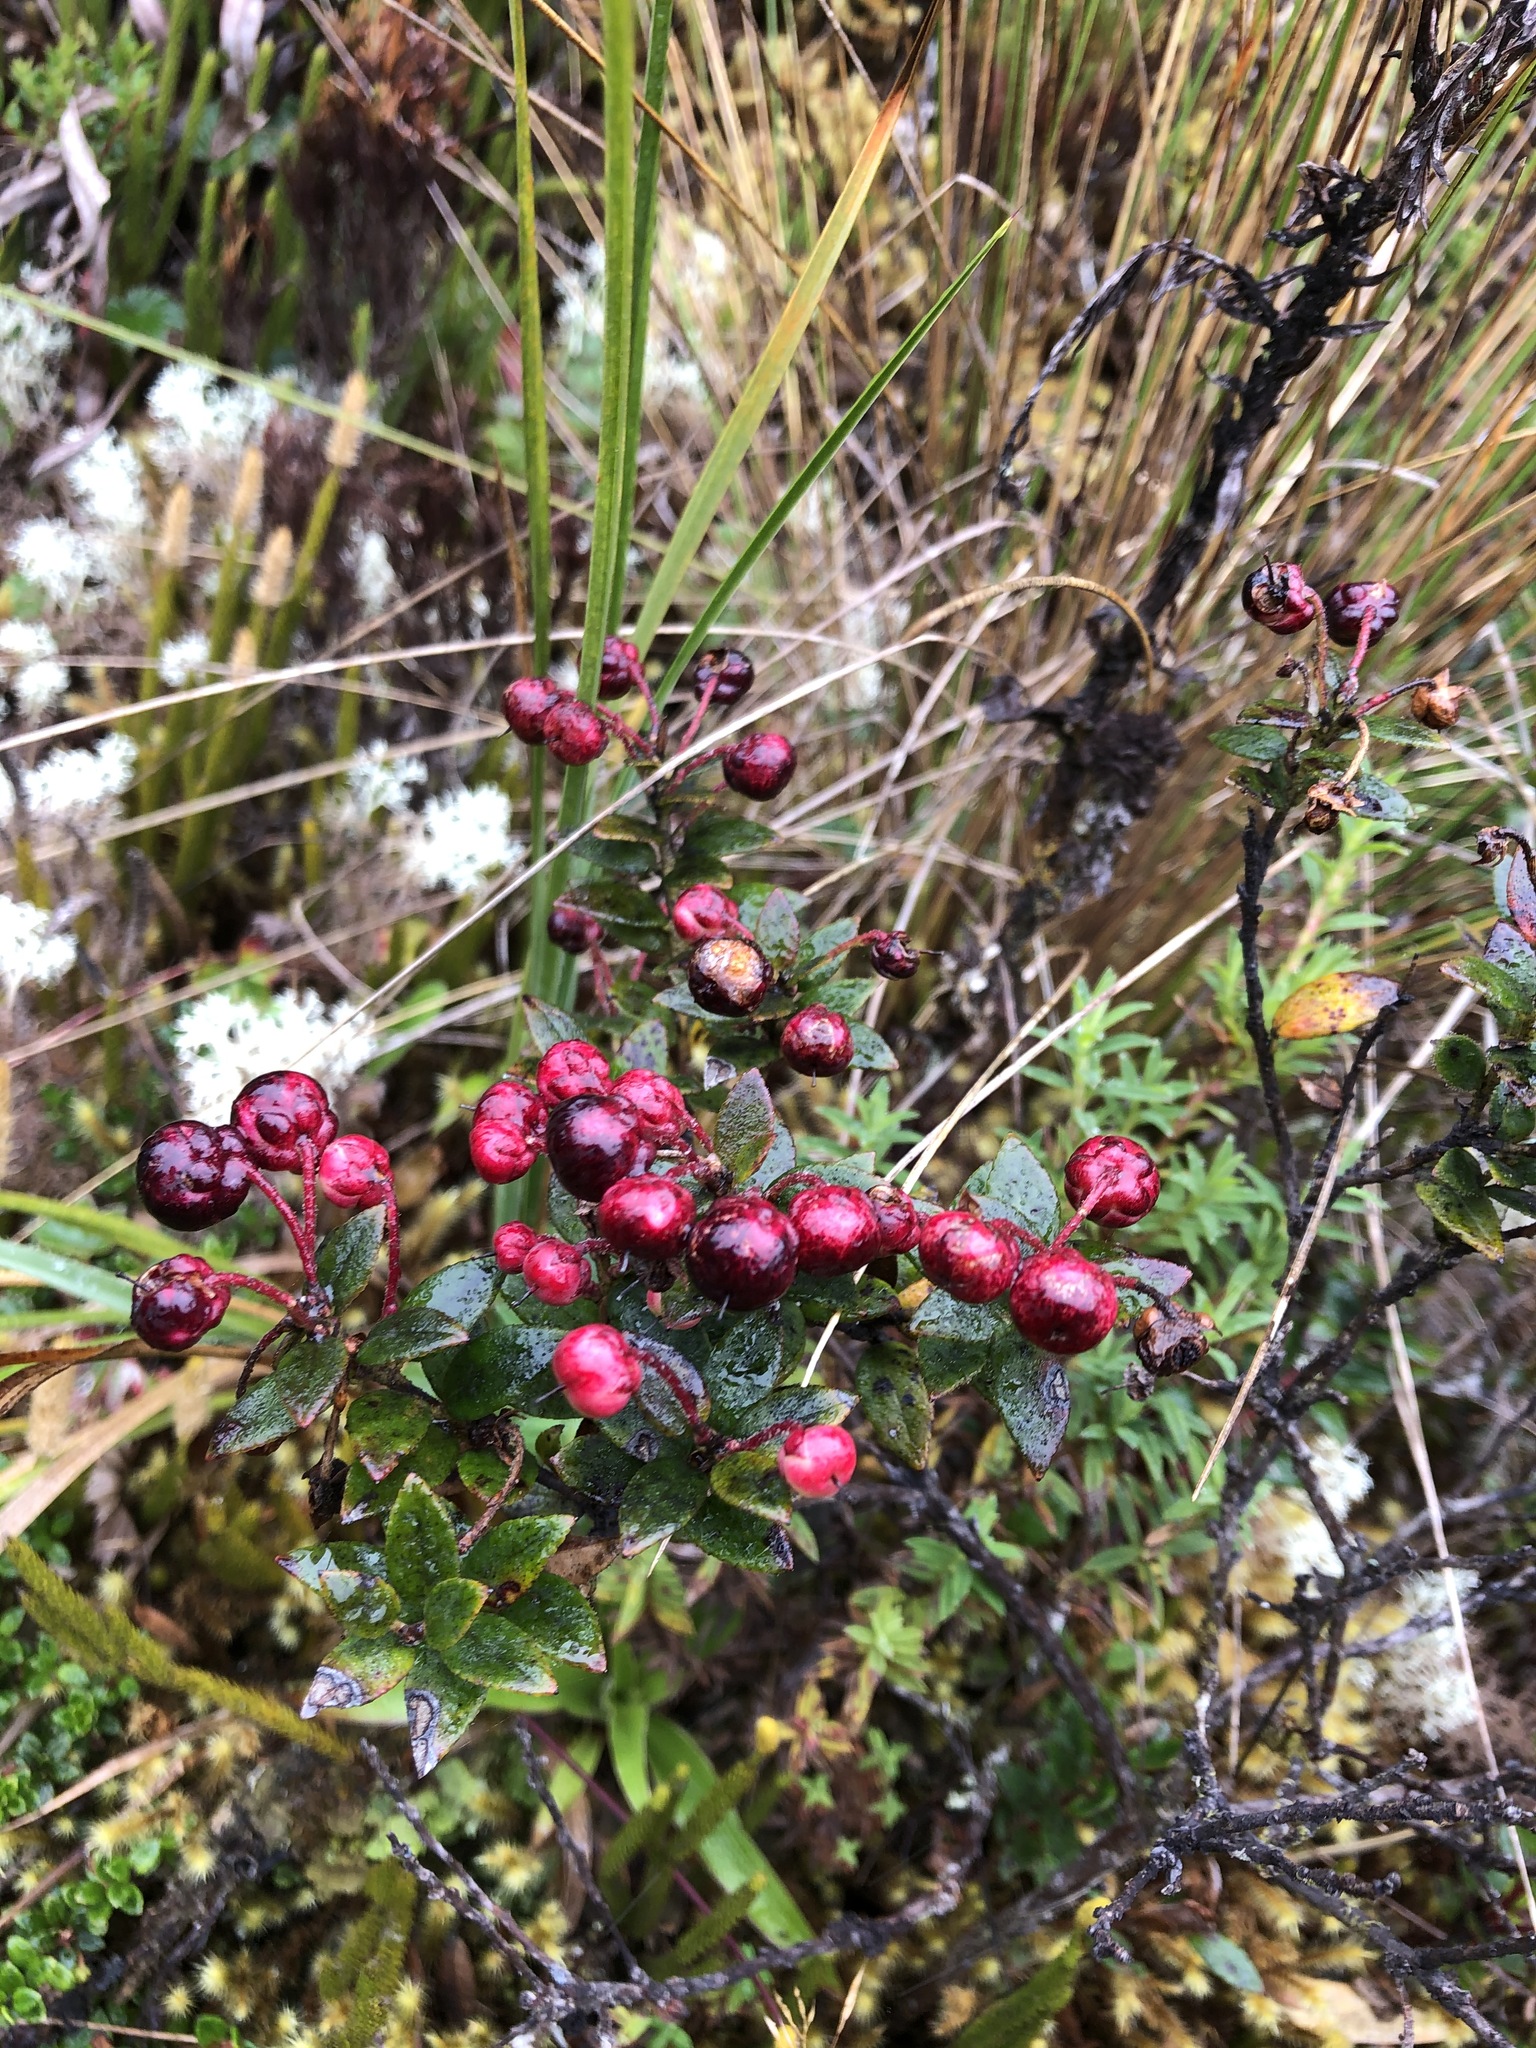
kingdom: Plantae
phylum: Tracheophyta
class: Magnoliopsida
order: Ericales
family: Ericaceae
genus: Gaultheria
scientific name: Gaultheria myrsinoides
